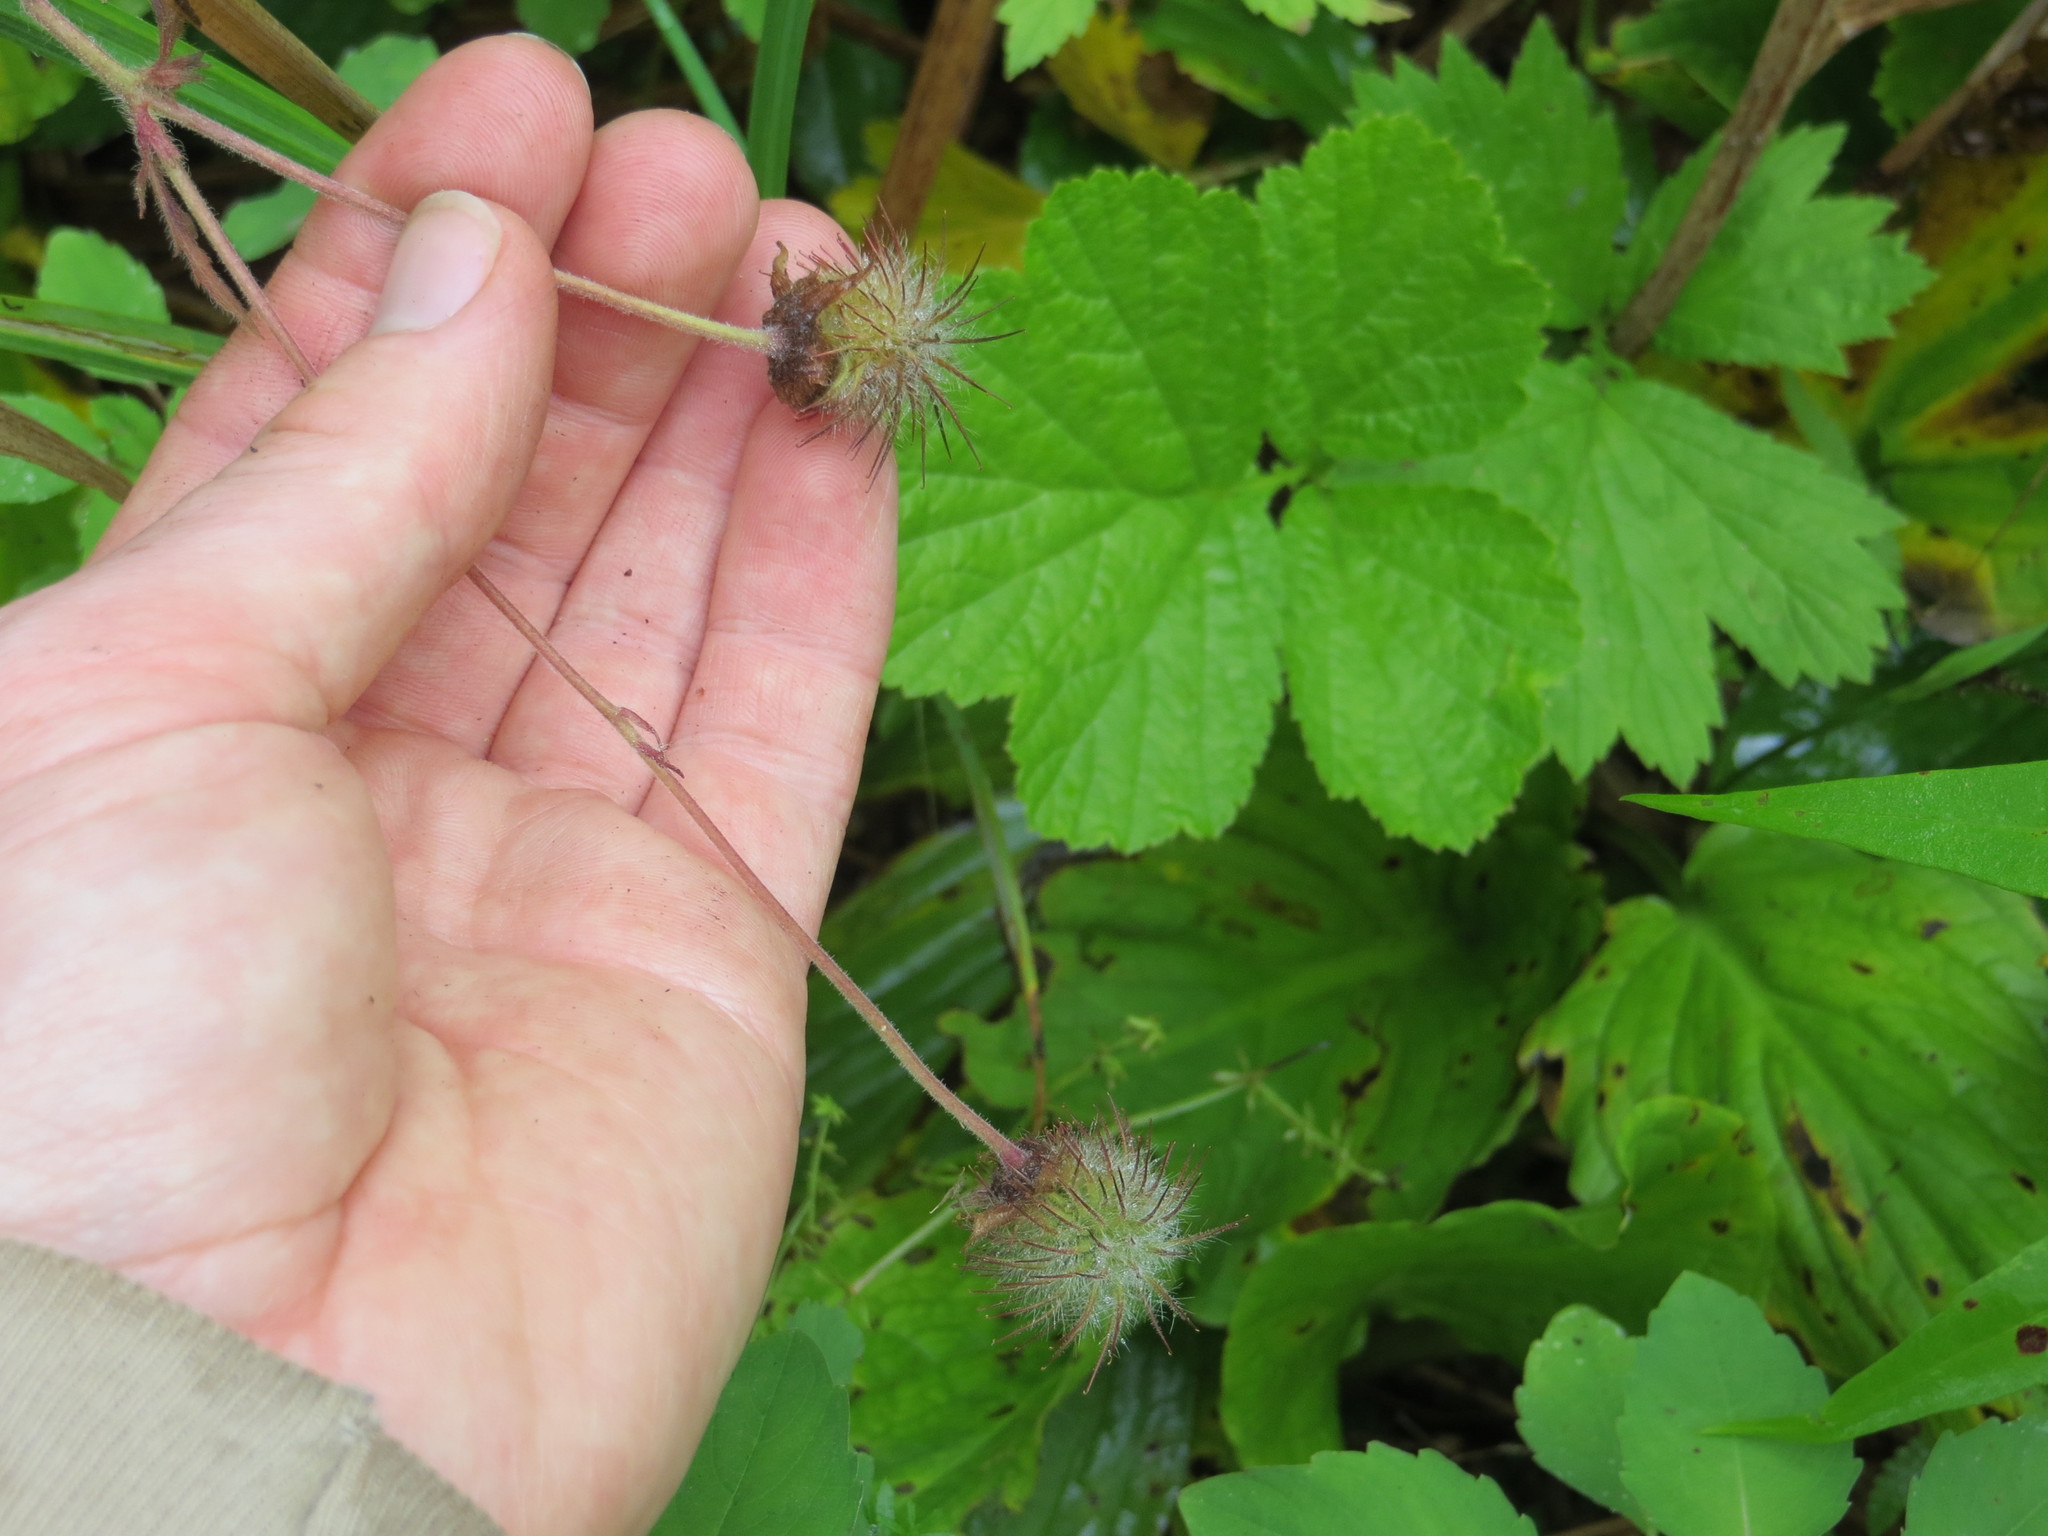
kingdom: Plantae
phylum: Tracheophyta
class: Magnoliopsida
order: Rosales
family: Rosaceae
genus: Geum
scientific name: Geum rivale
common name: Water avens
